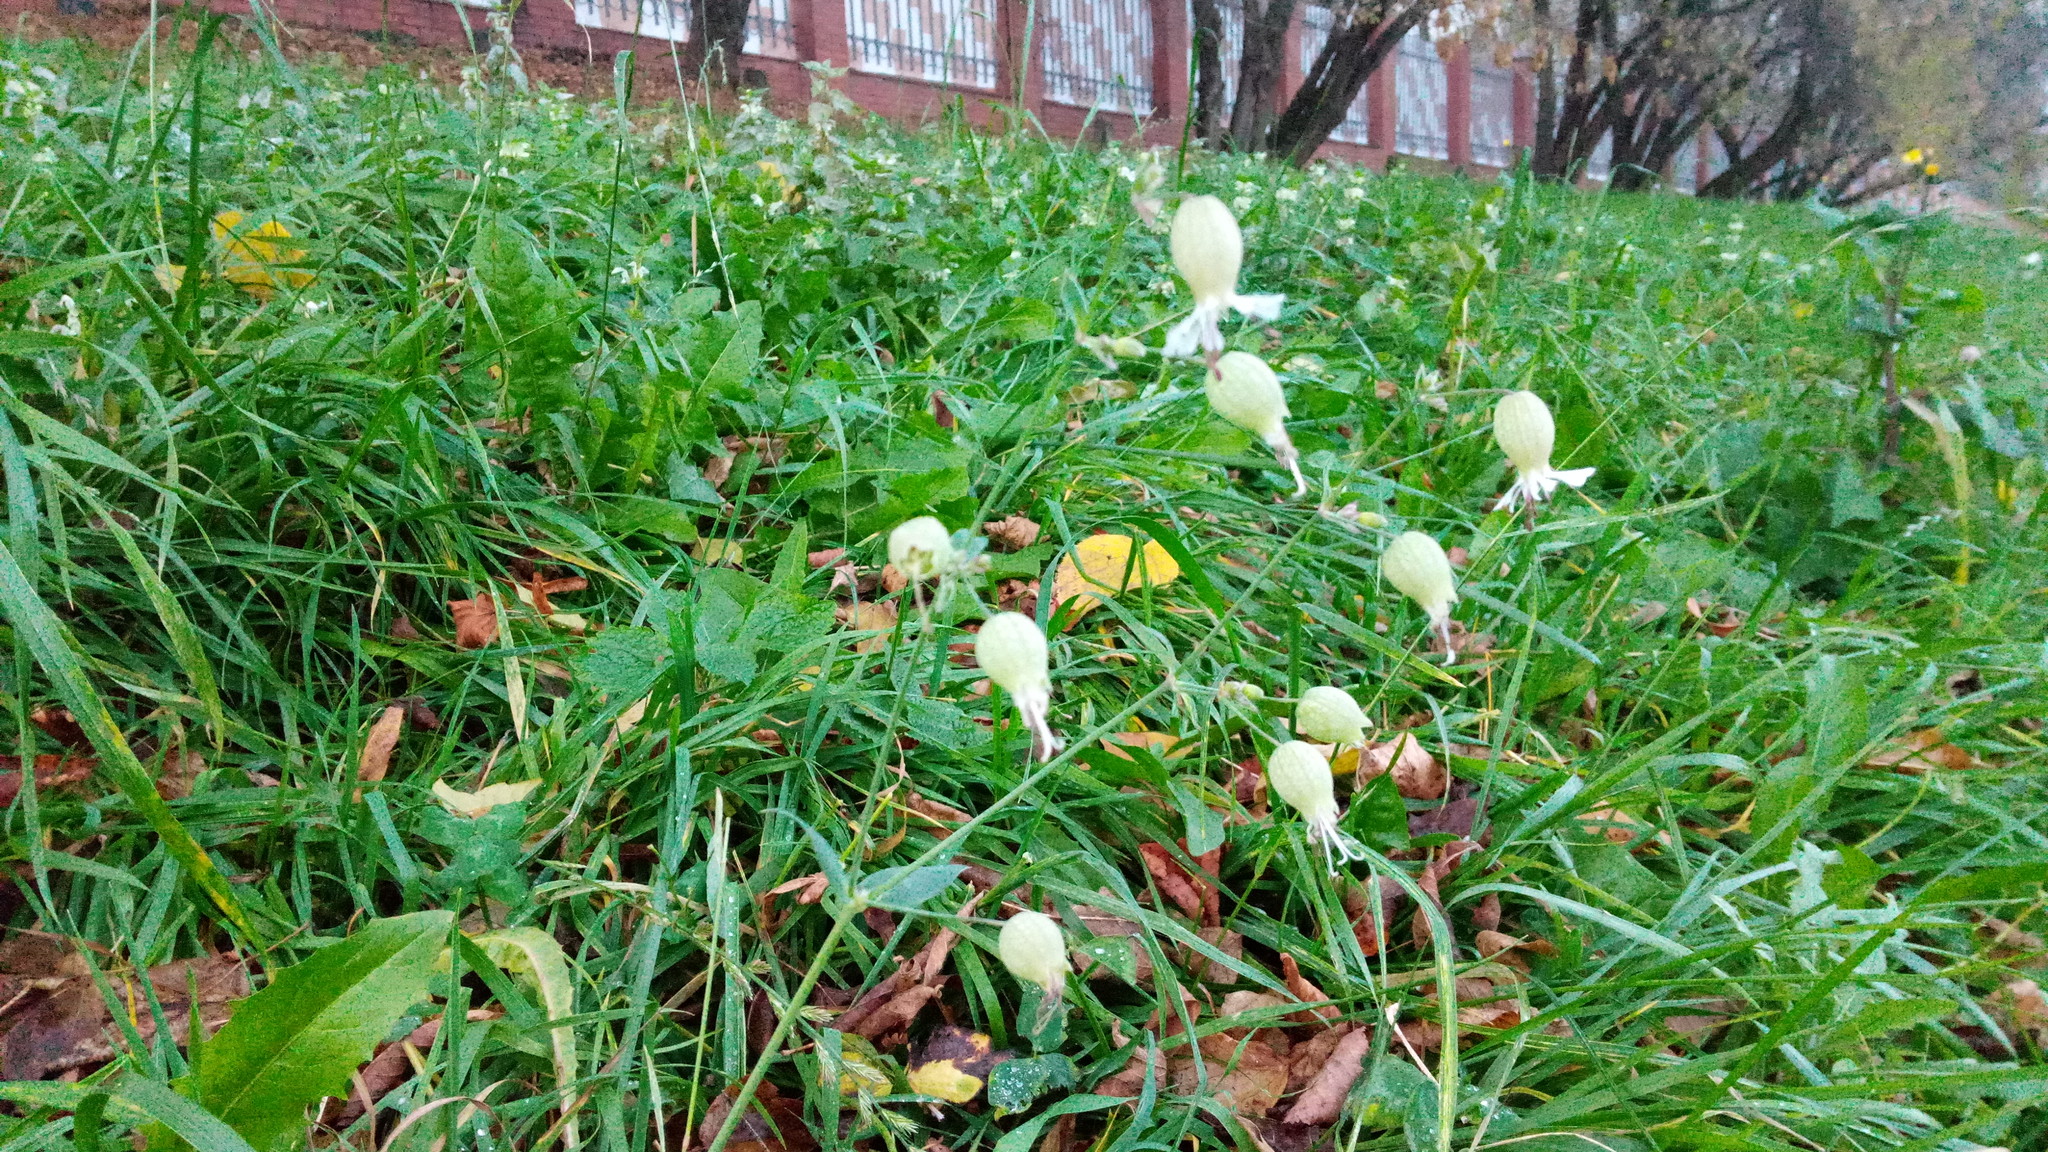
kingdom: Plantae
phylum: Tracheophyta
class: Magnoliopsida
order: Caryophyllales
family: Caryophyllaceae
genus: Silene
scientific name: Silene vulgaris
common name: Bladder campion
